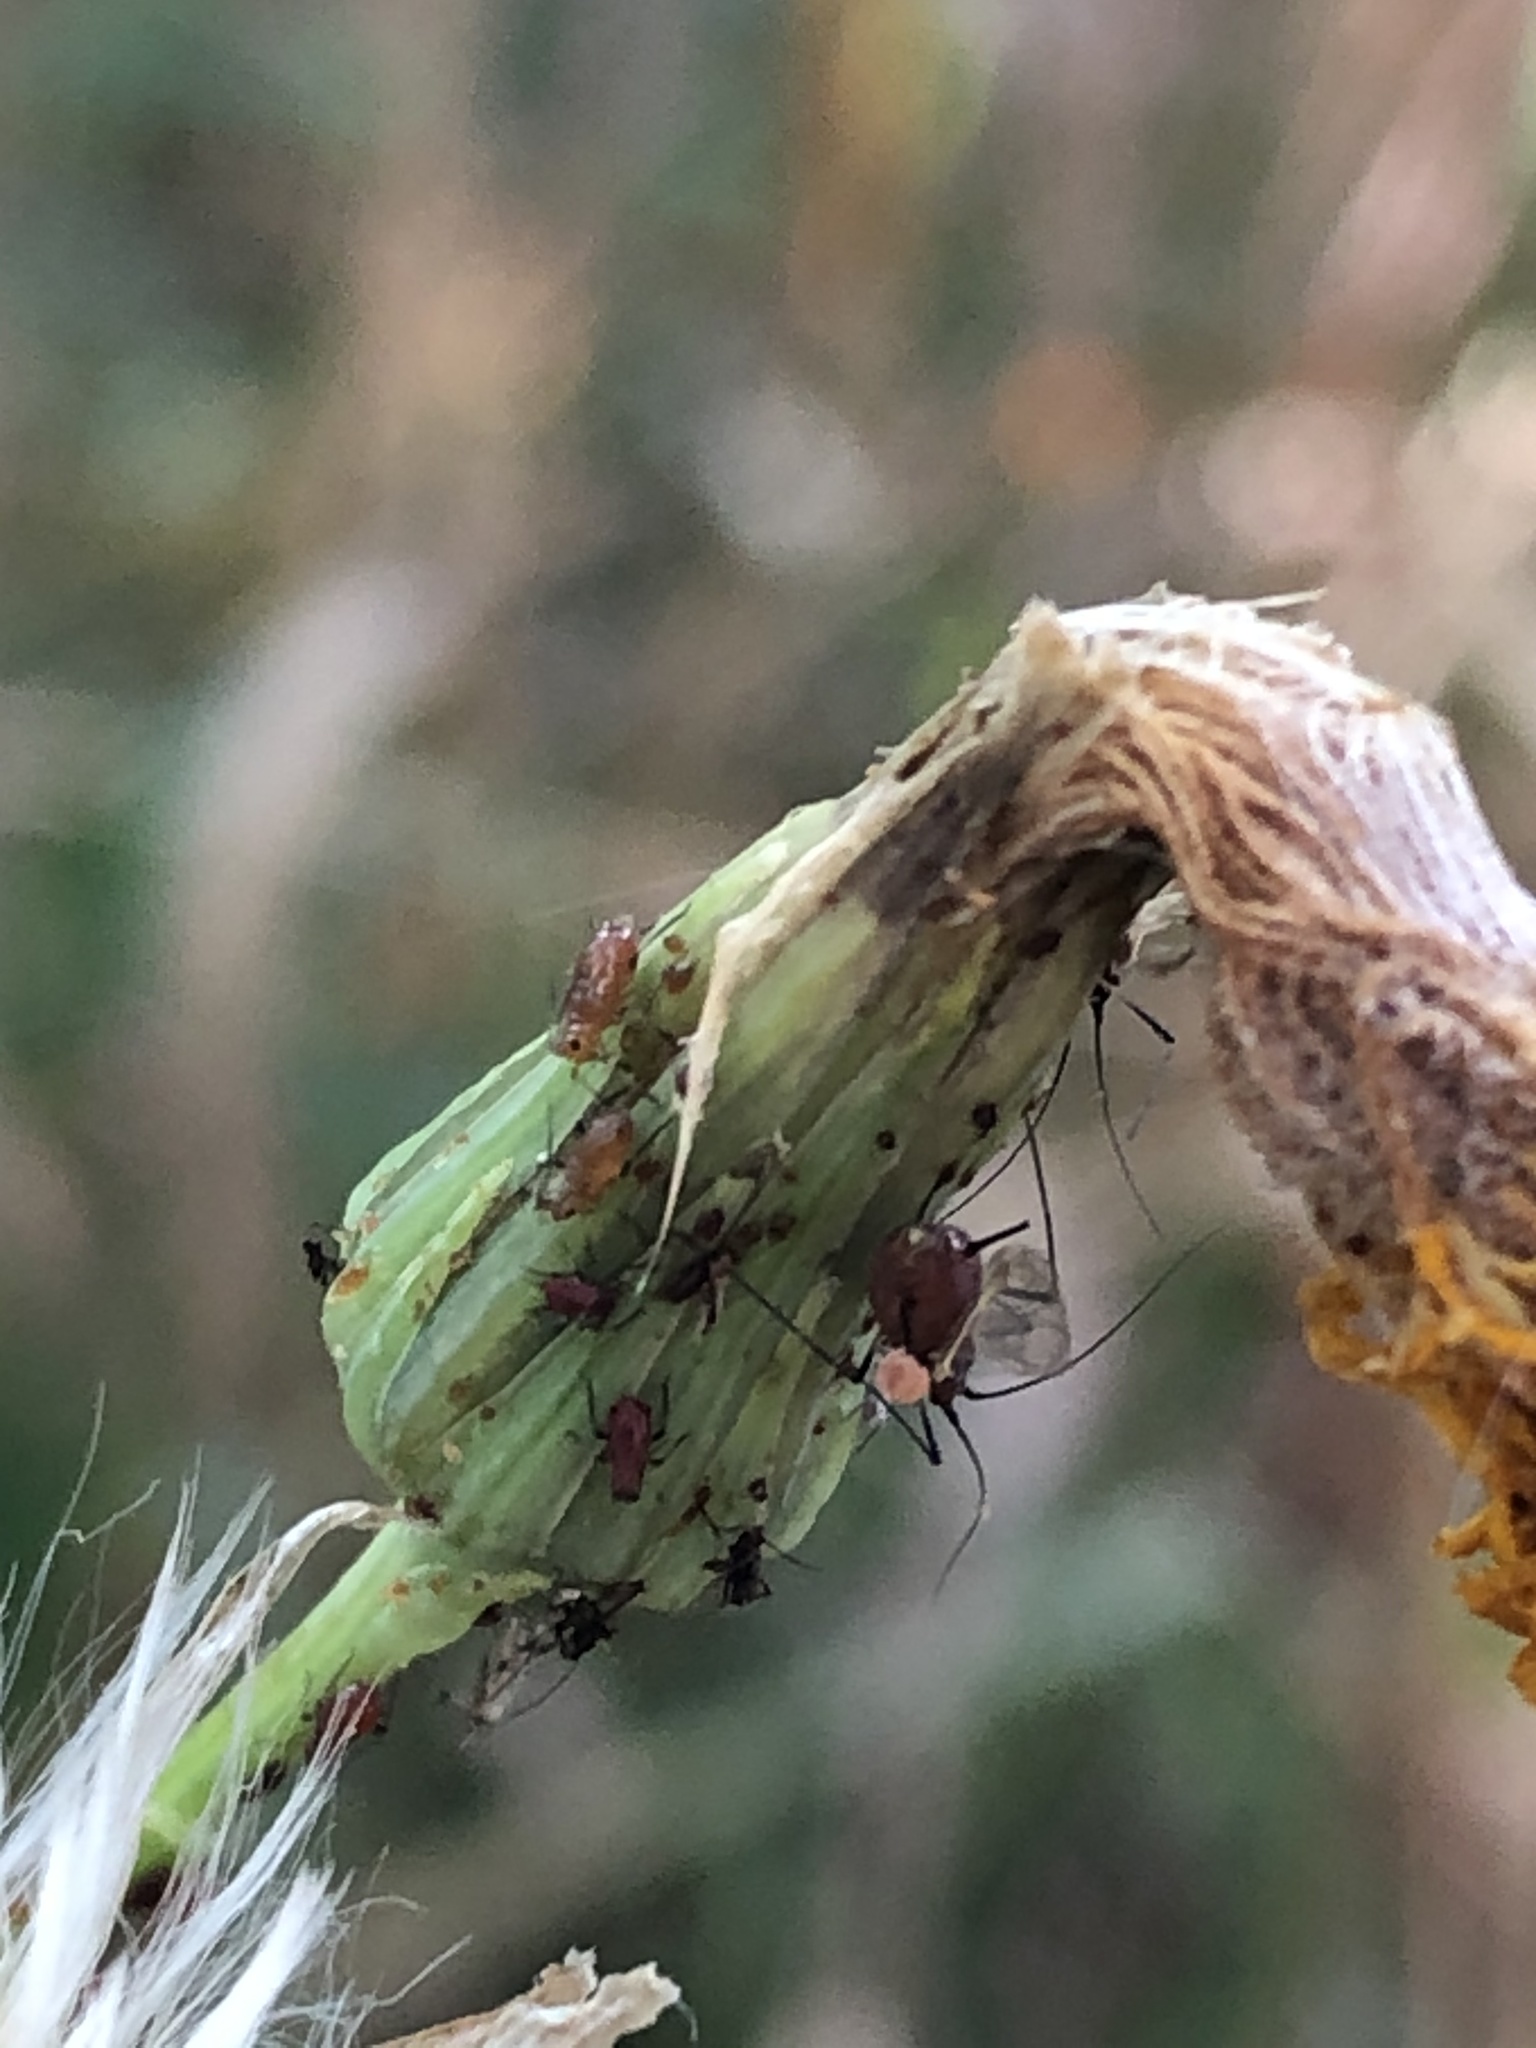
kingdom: Plantae
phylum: Tracheophyta
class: Magnoliopsida
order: Asterales
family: Asteraceae
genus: Sonchus
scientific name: Sonchus arvensis
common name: Perennial sow-thistle
